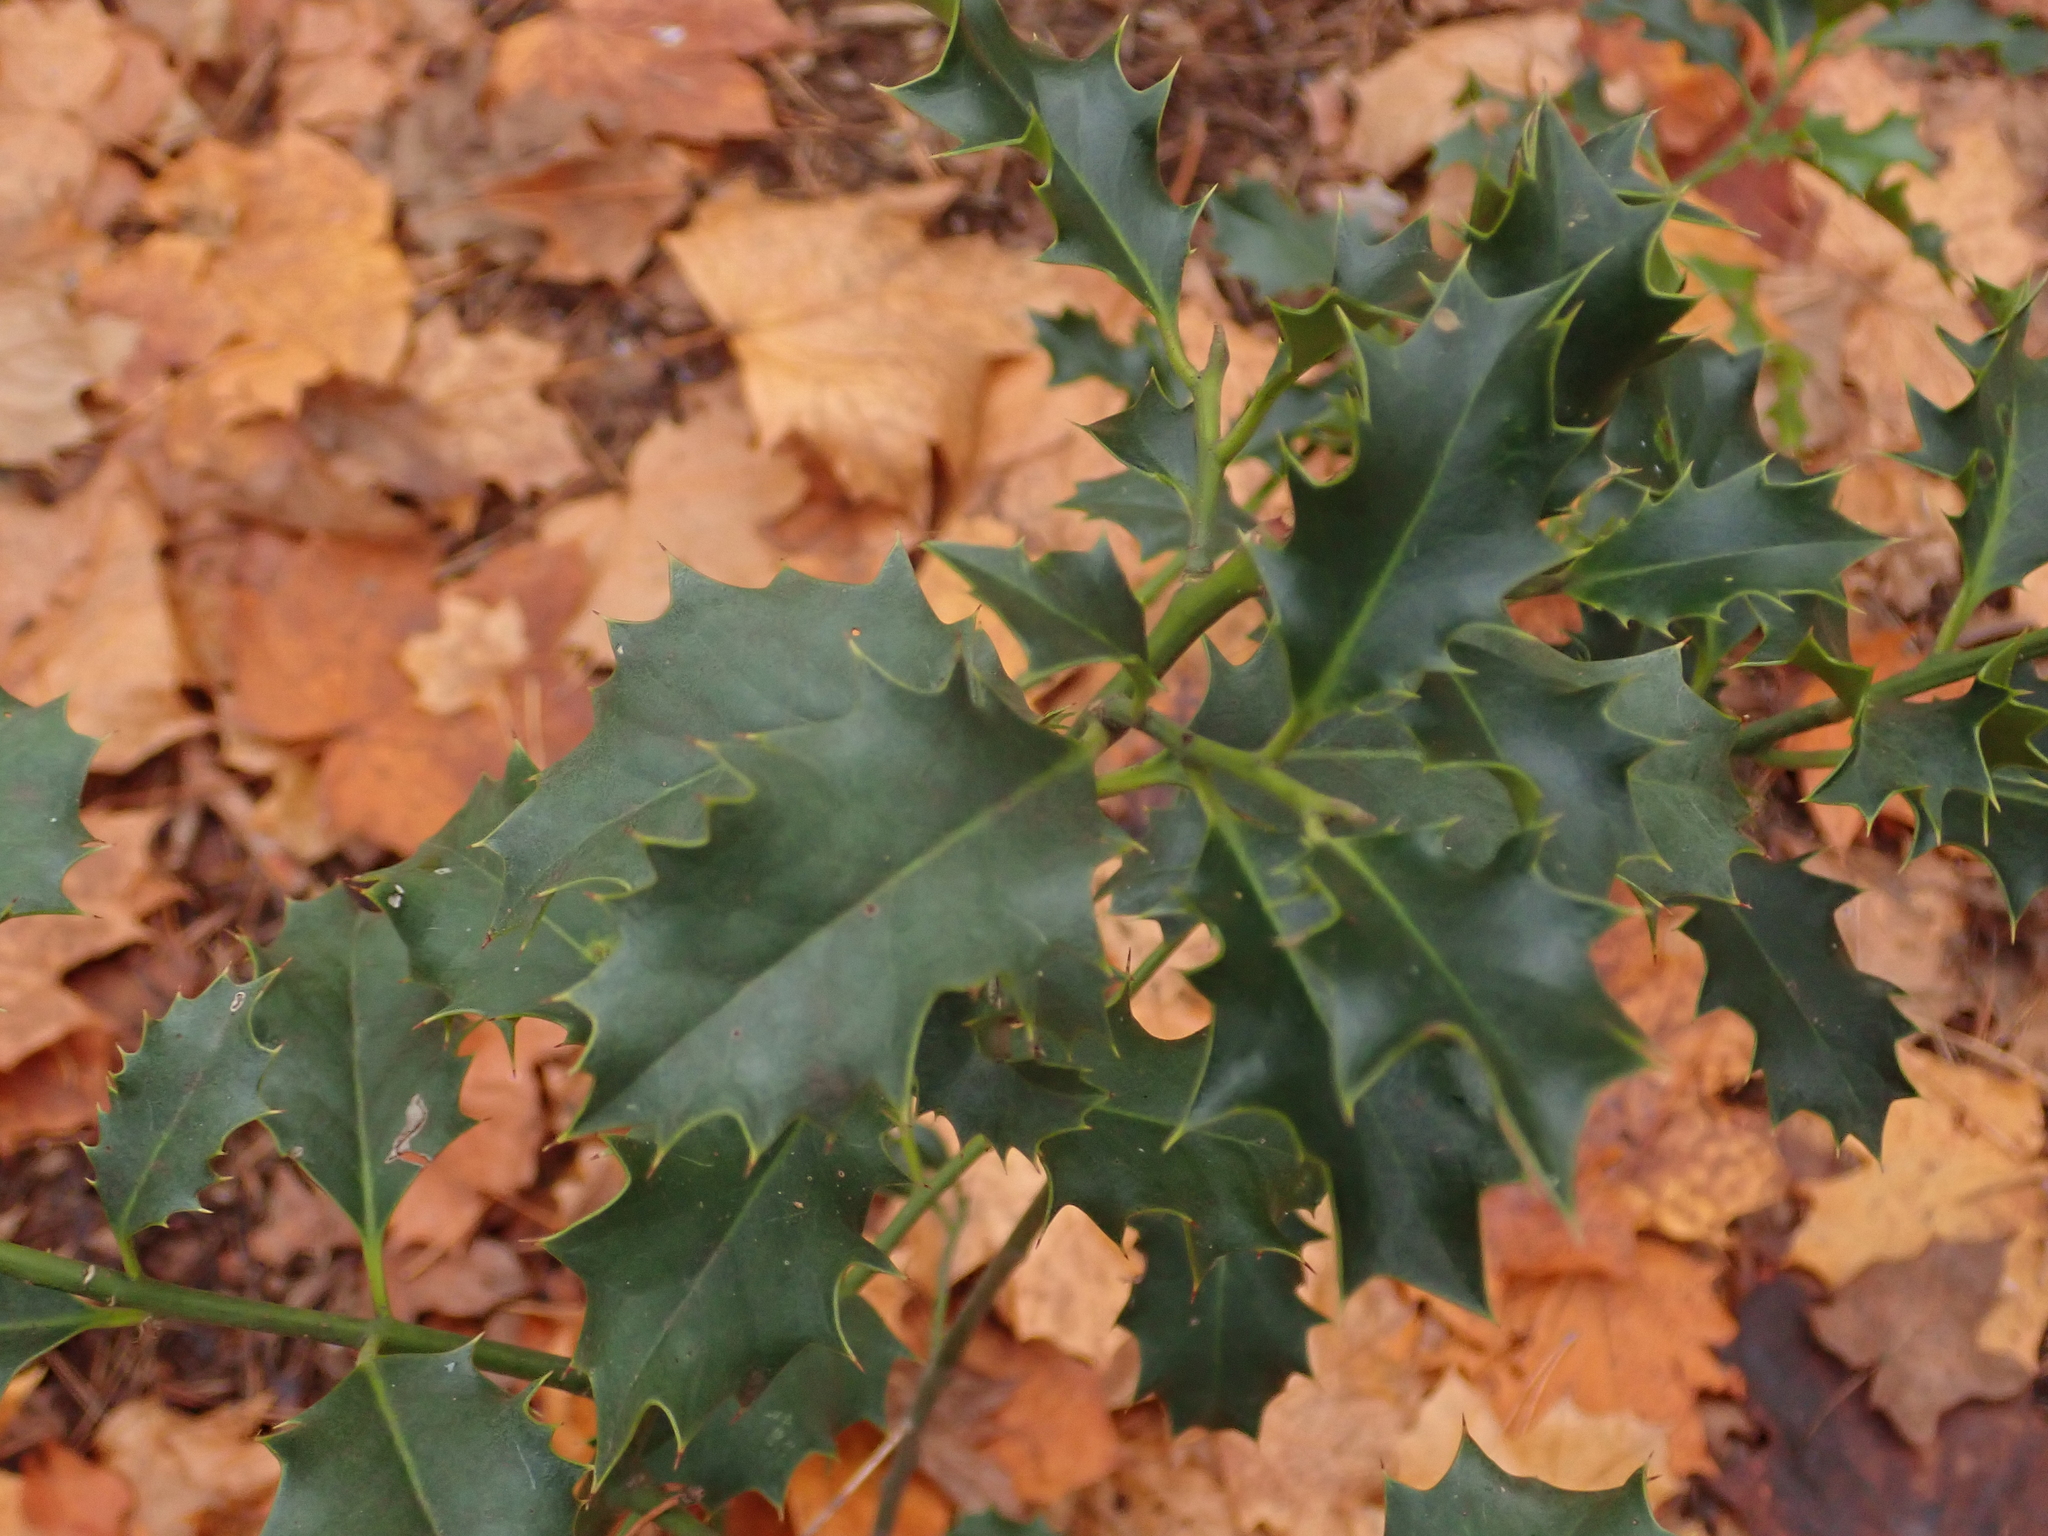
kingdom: Plantae
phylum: Tracheophyta
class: Magnoliopsida
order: Aquifoliales
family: Aquifoliaceae
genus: Ilex
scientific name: Ilex aquifolium
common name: English holly
